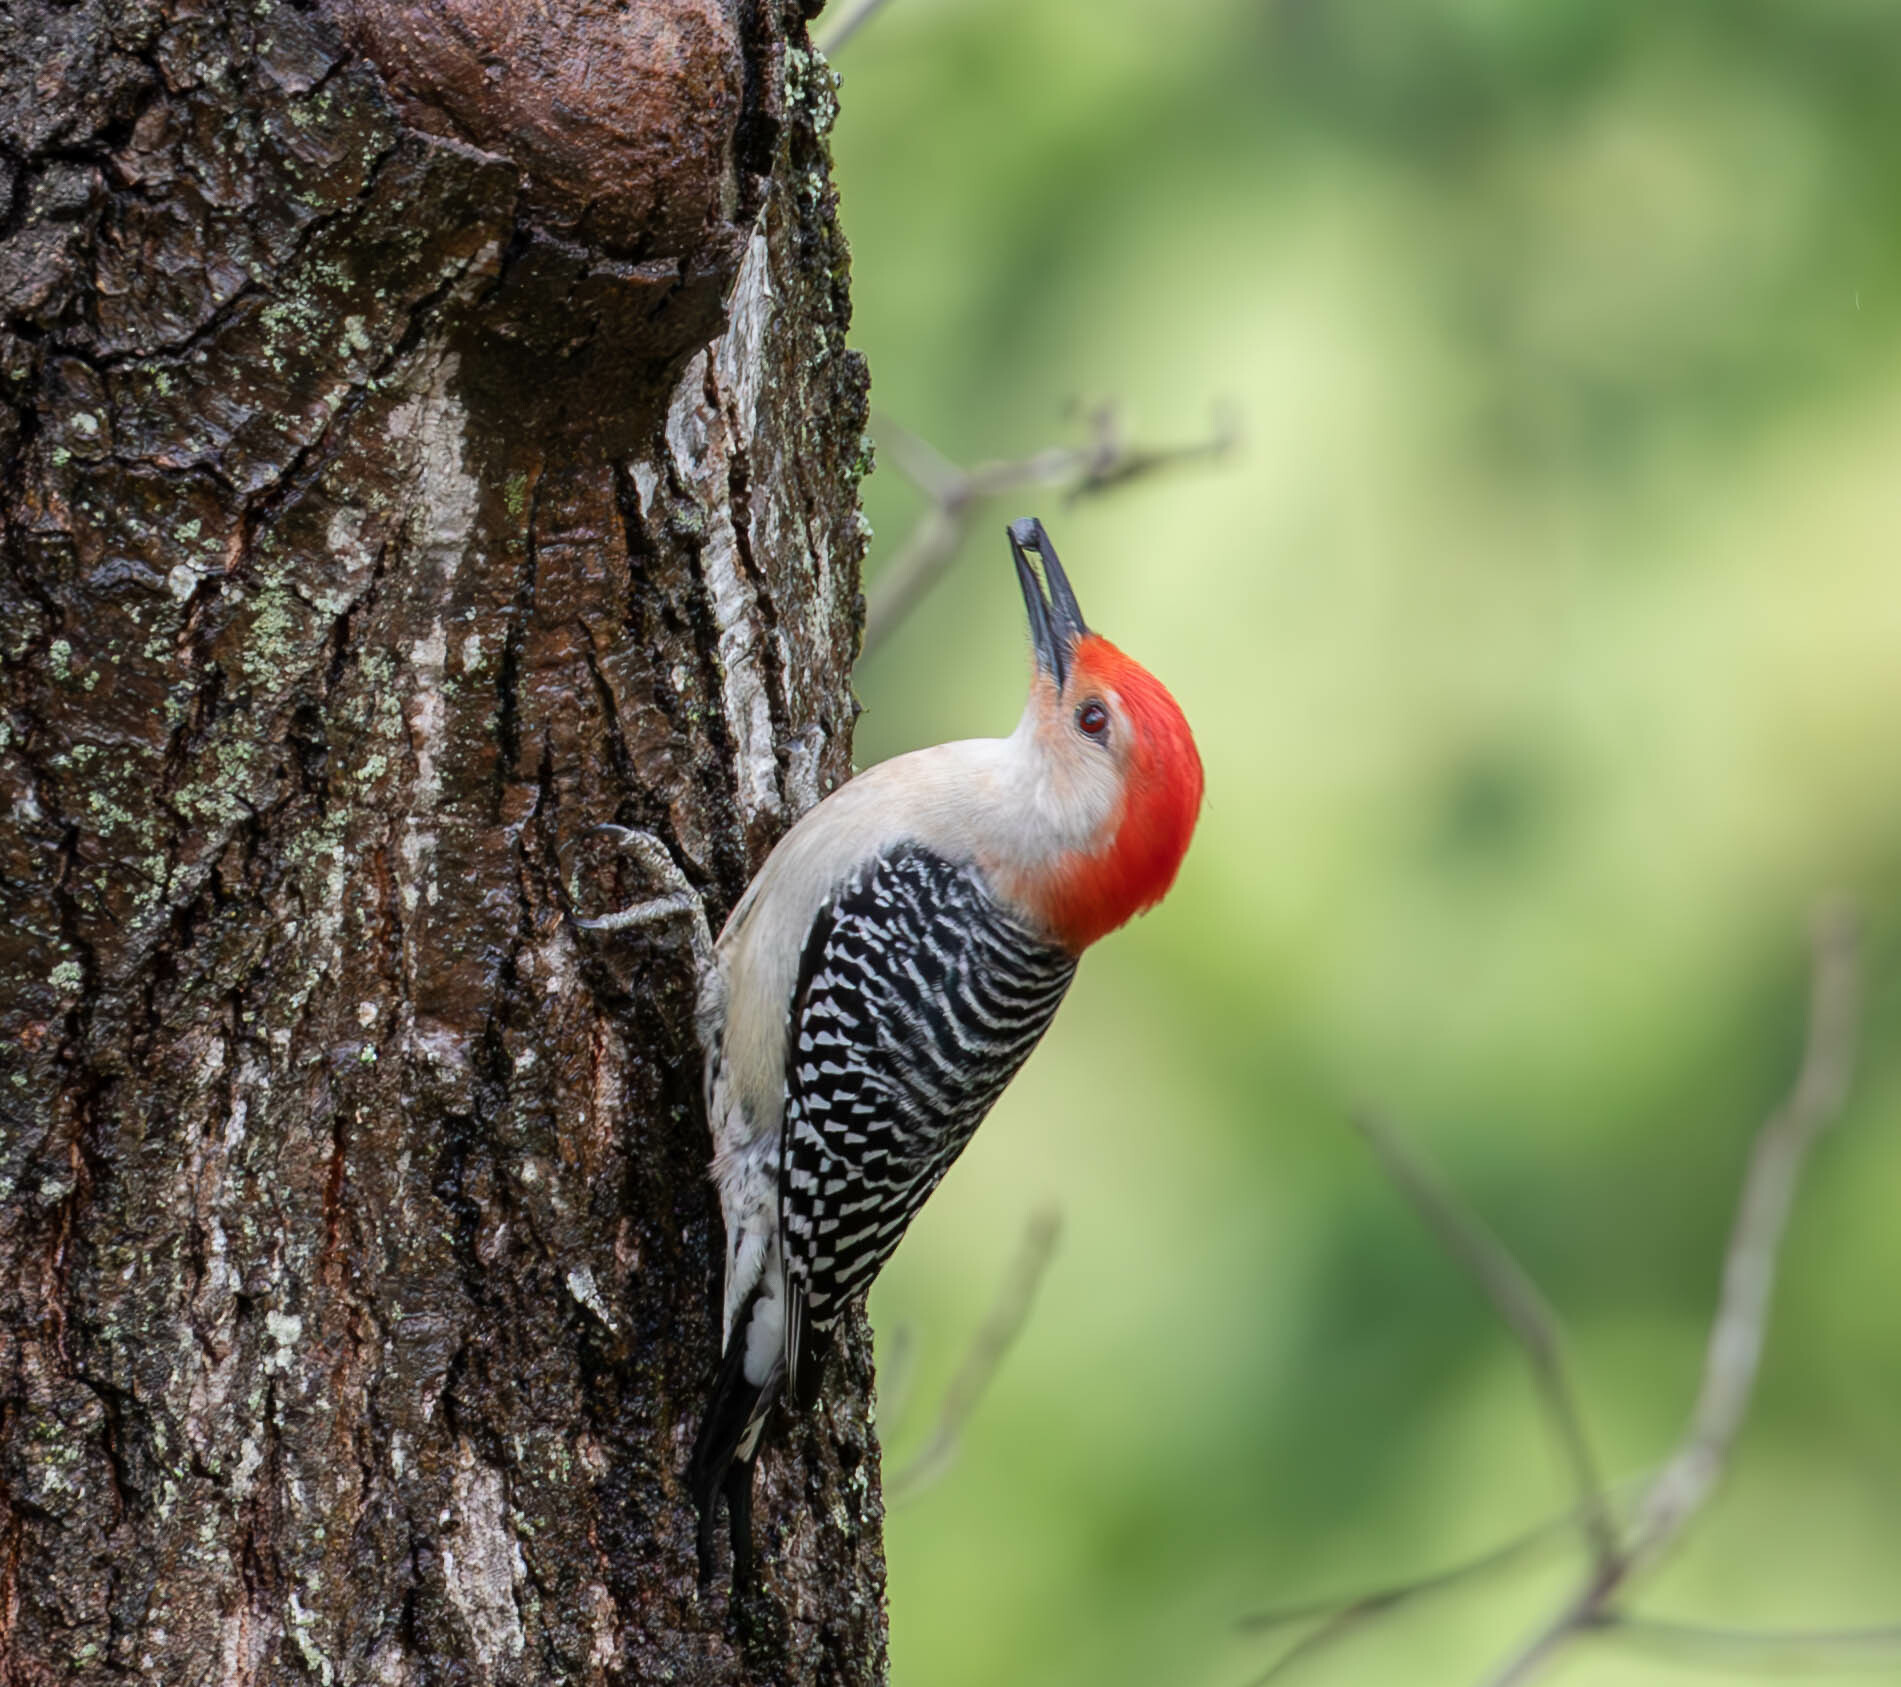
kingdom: Animalia
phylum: Chordata
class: Aves
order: Piciformes
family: Picidae
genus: Melanerpes
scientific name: Melanerpes carolinus
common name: Red-bellied woodpecker
